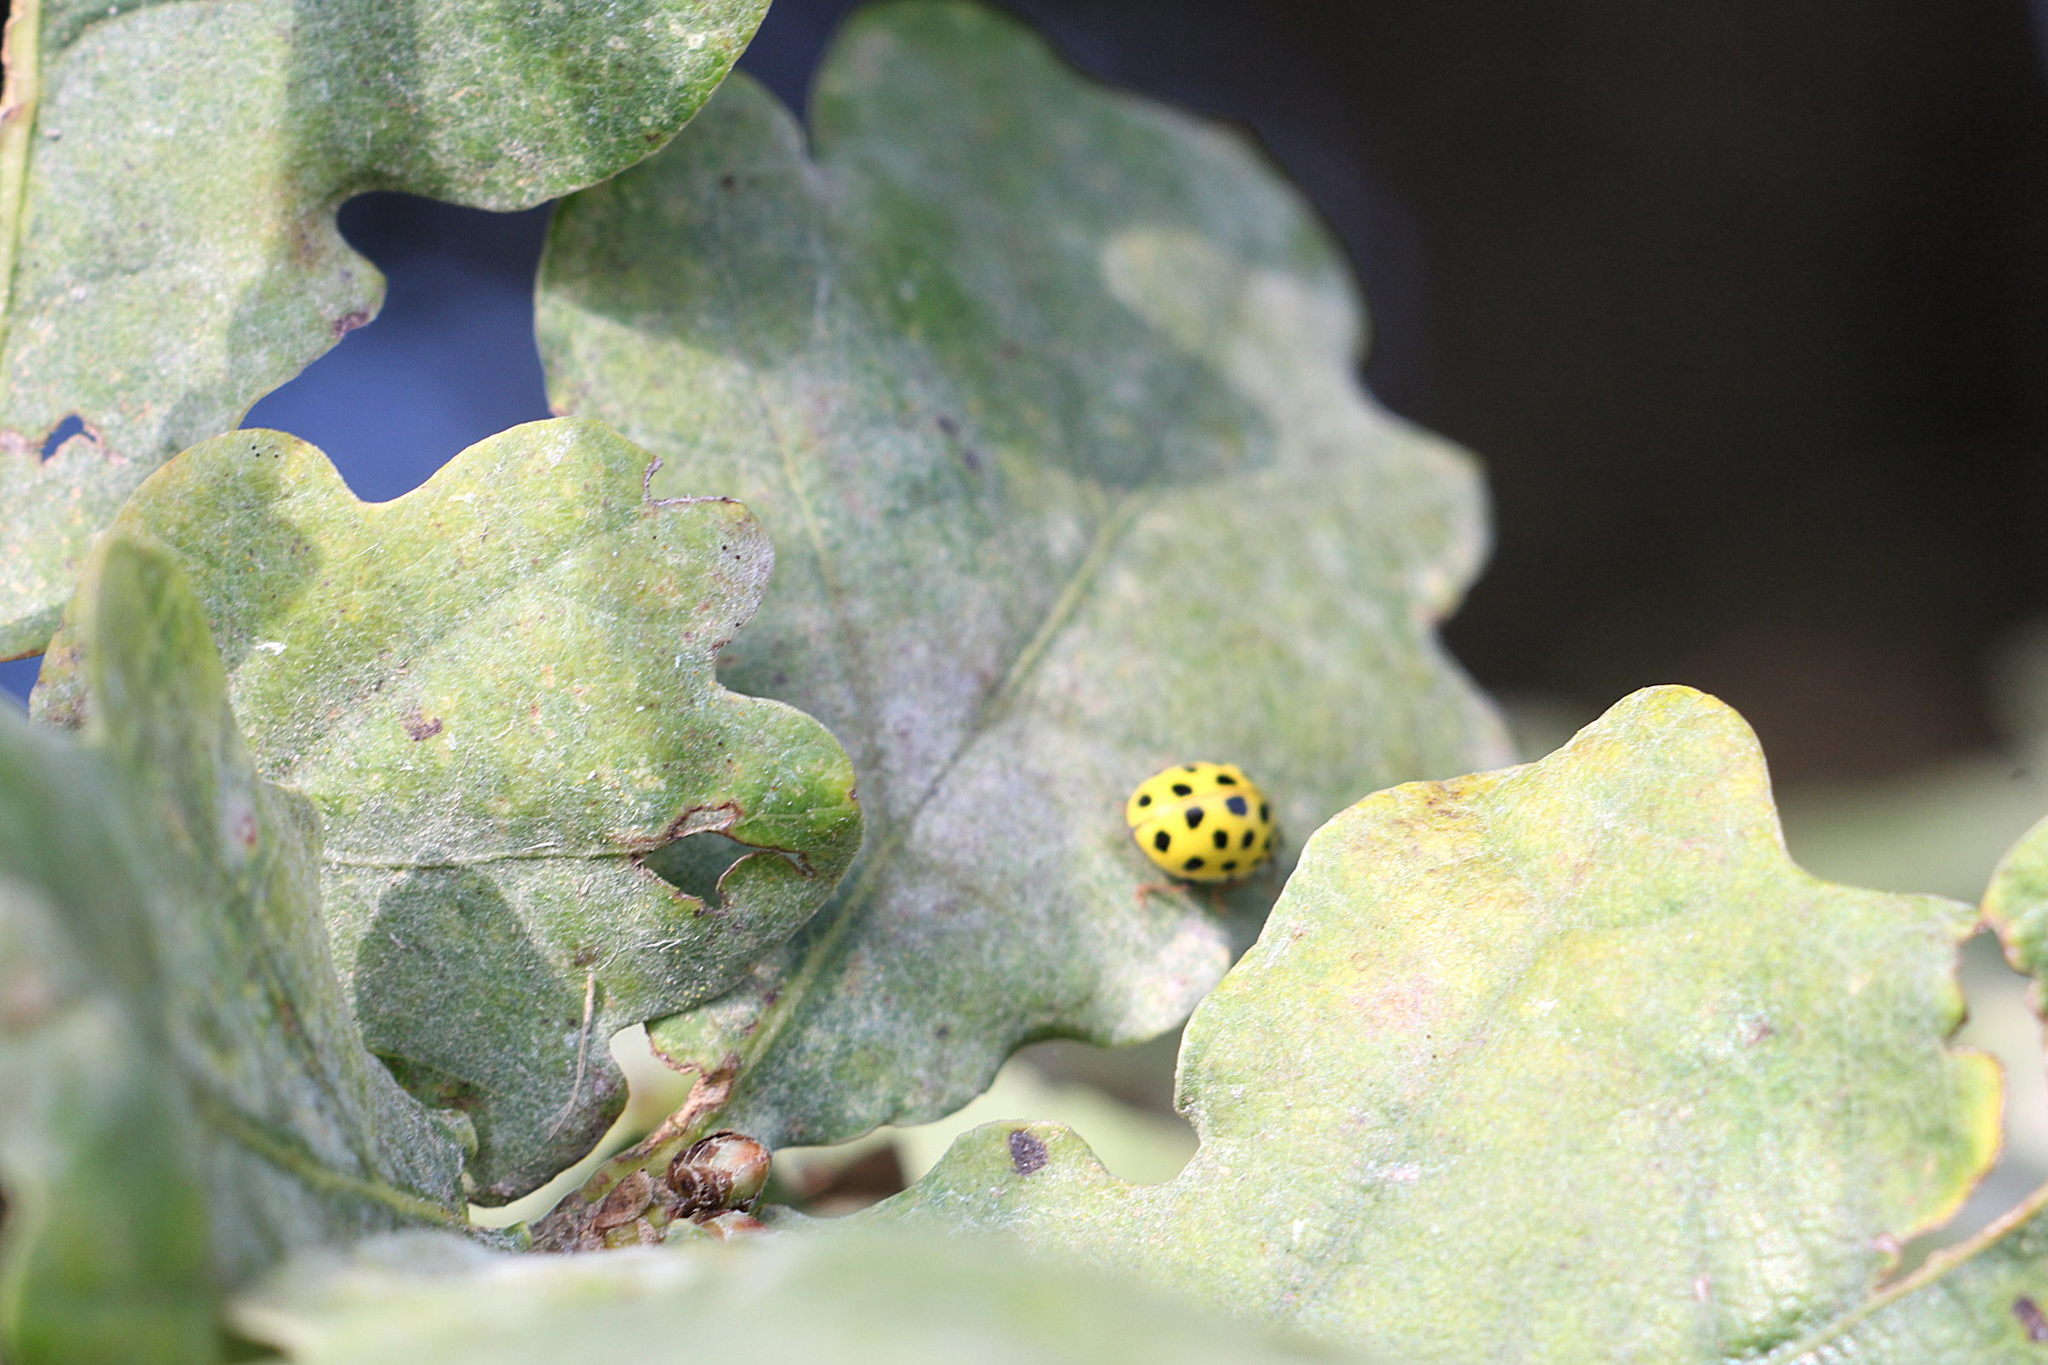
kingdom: Animalia
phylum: Arthropoda
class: Insecta
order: Coleoptera
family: Coccinellidae
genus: Psyllobora
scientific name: Psyllobora vigintiduopunctata
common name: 22-spot ladybird
